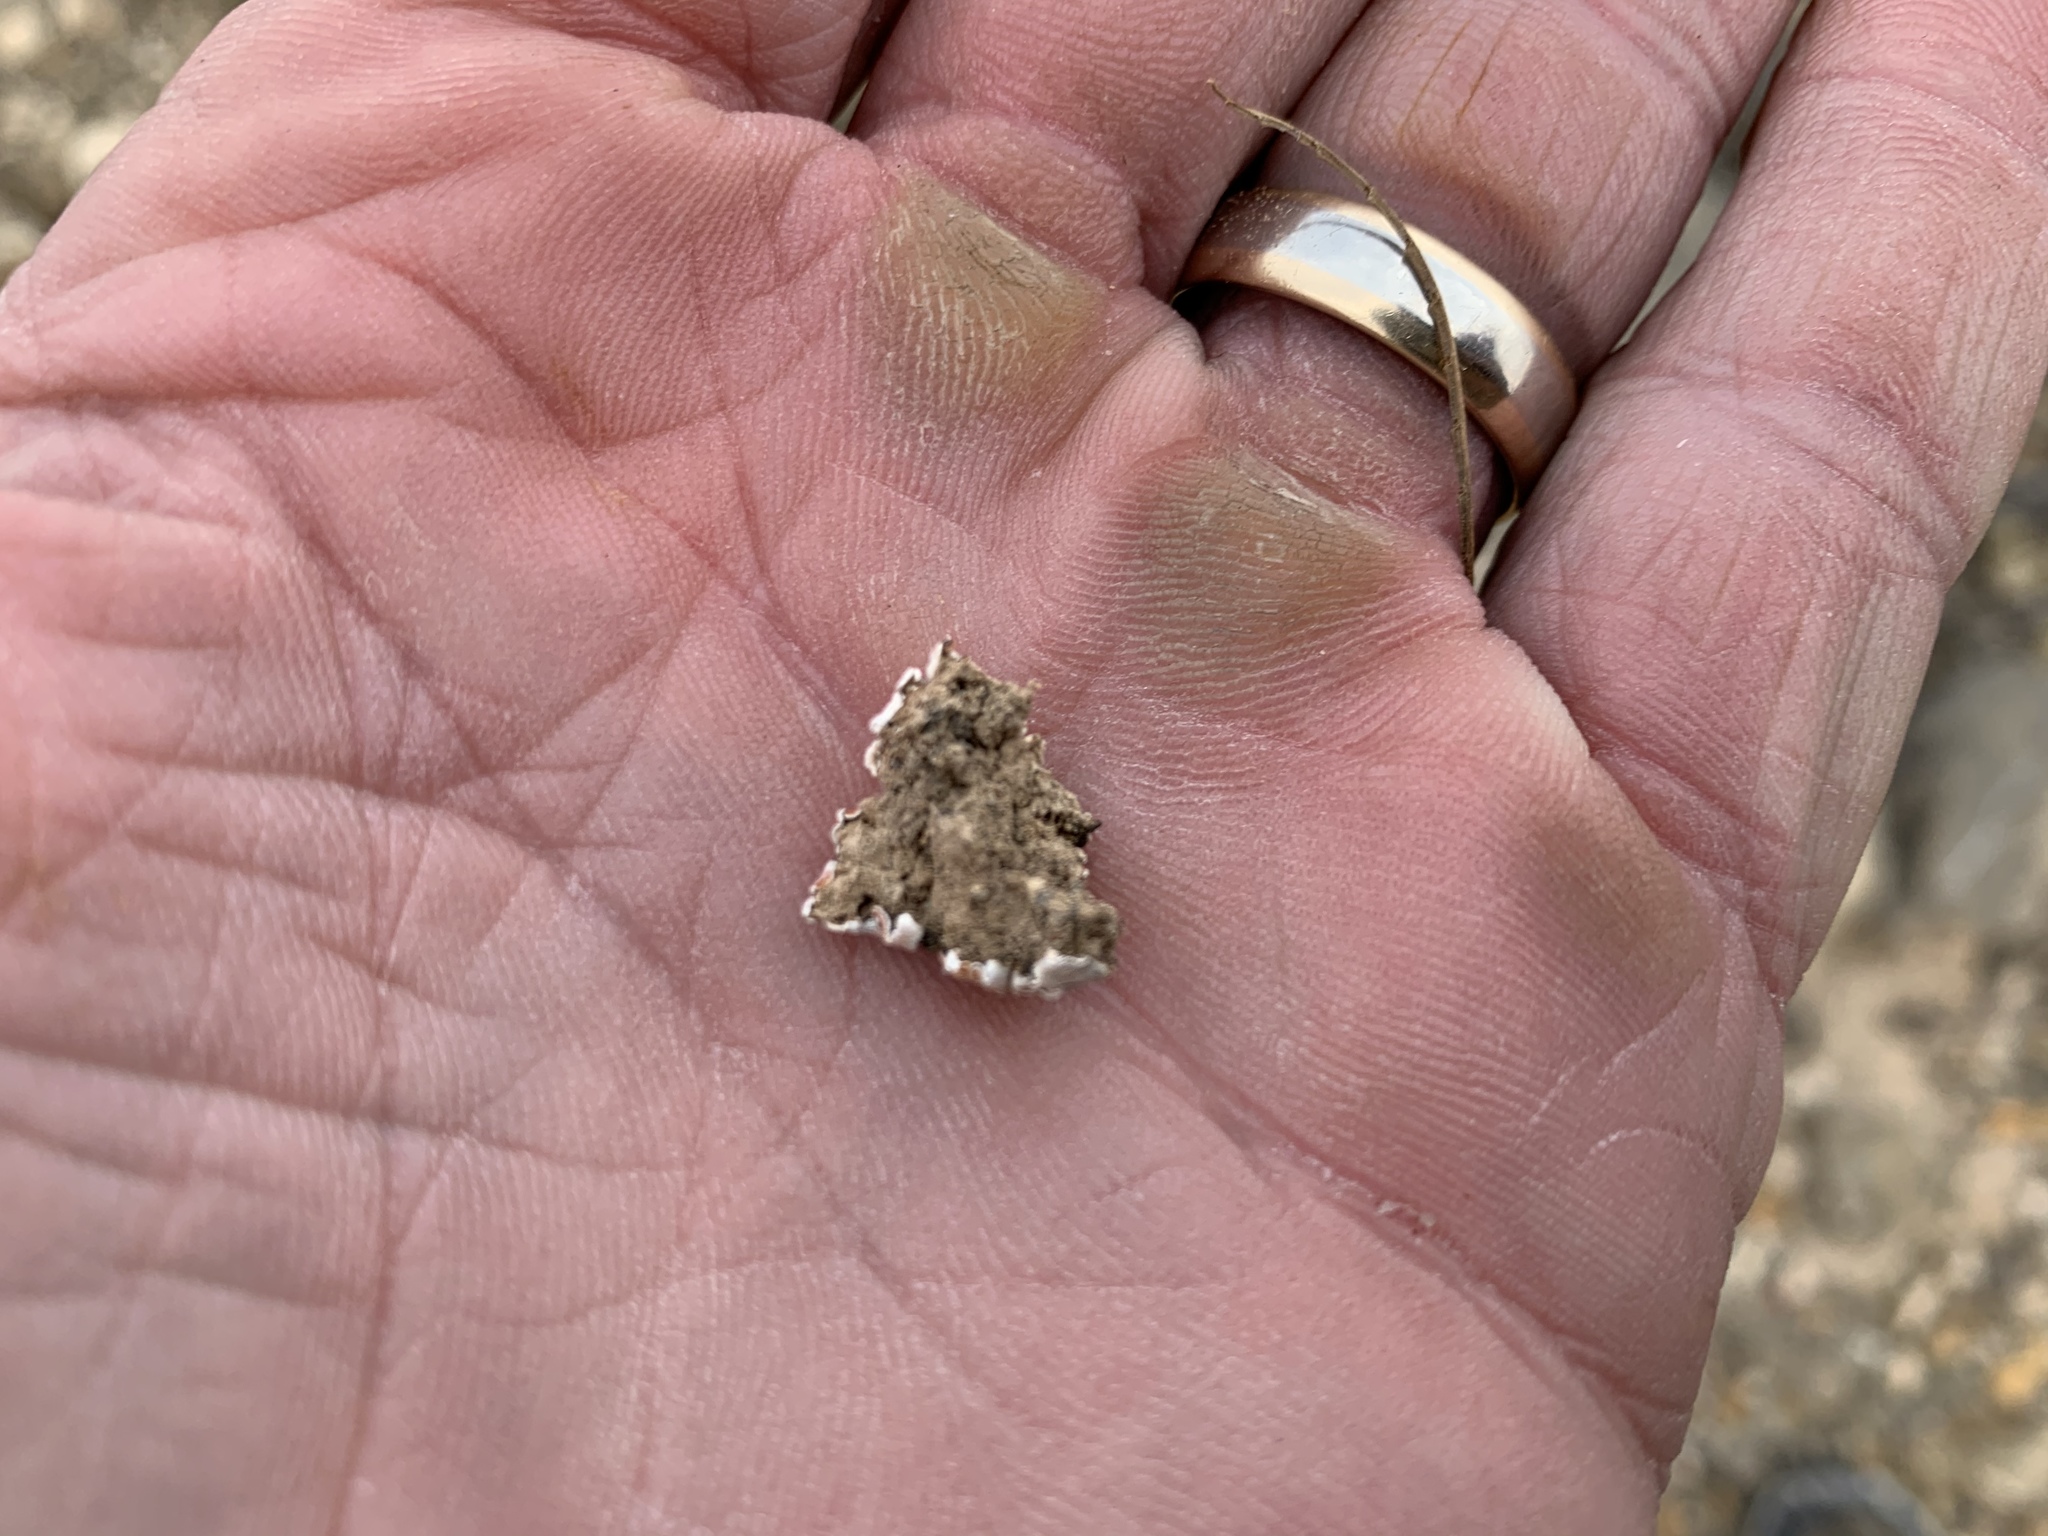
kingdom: Fungi
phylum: Ascomycota
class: Lecanoromycetes
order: Lecanorales
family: Psoraceae
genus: Psora
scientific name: Psora decipiens
